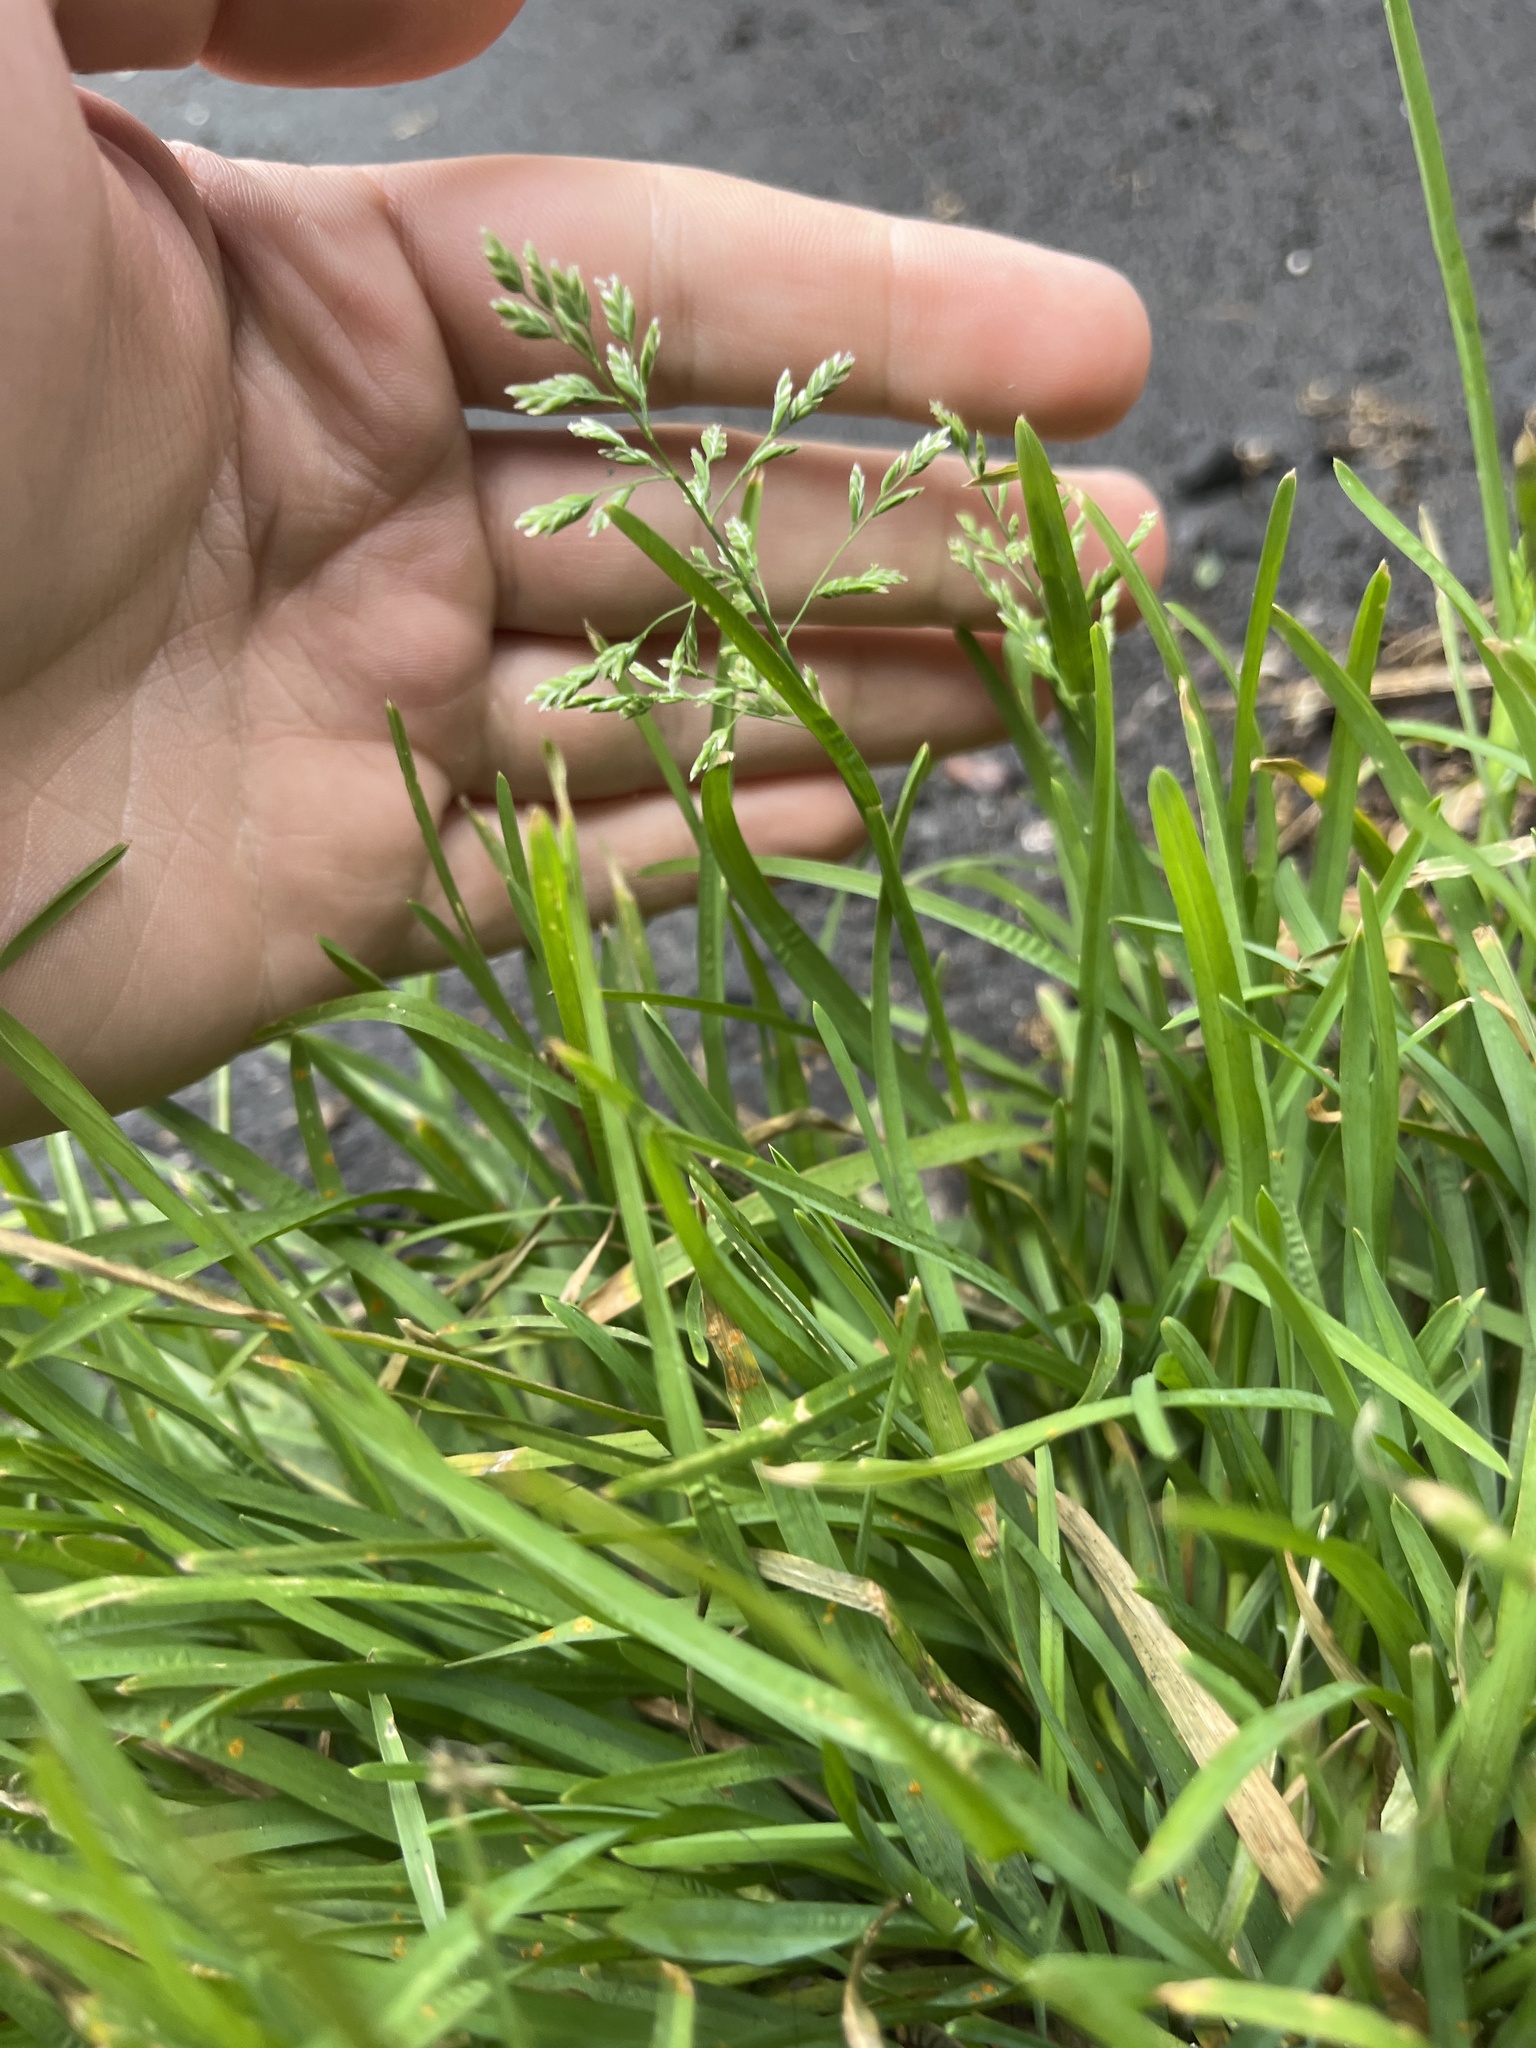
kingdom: Plantae
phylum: Tracheophyta
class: Liliopsida
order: Poales
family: Poaceae
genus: Poa
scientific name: Poa annua
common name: Annual bluegrass
